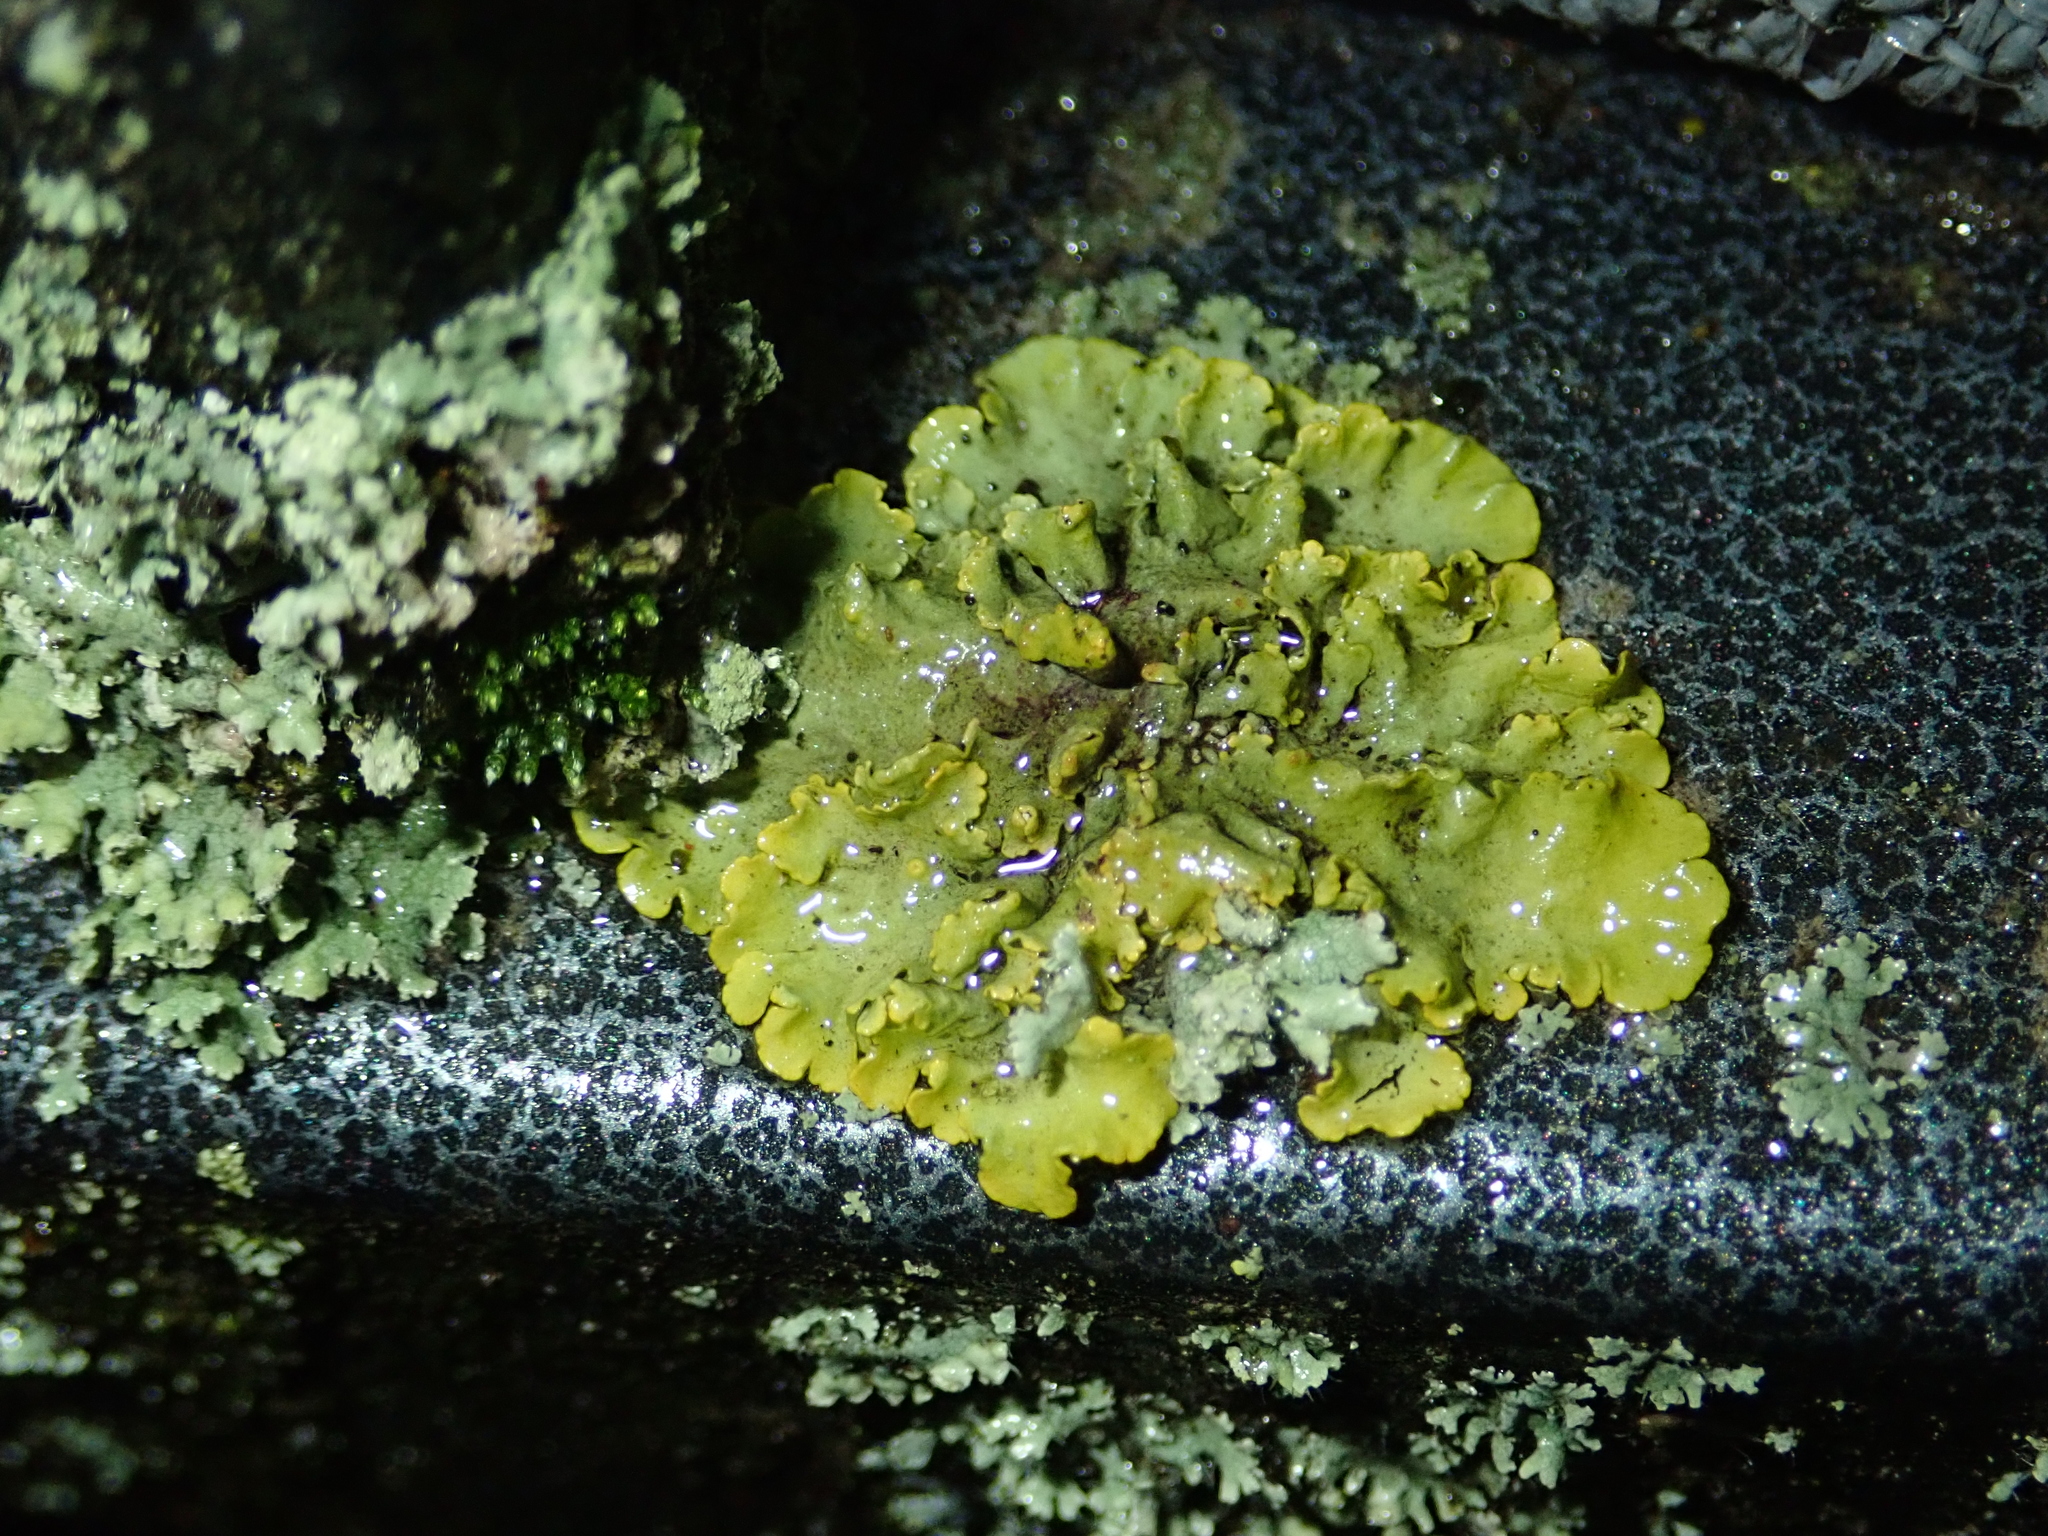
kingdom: Fungi
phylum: Ascomycota
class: Lecanoromycetes
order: Teloschistales
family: Teloschistaceae
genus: Xanthoria
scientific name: Xanthoria parietina
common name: Common orange lichen
